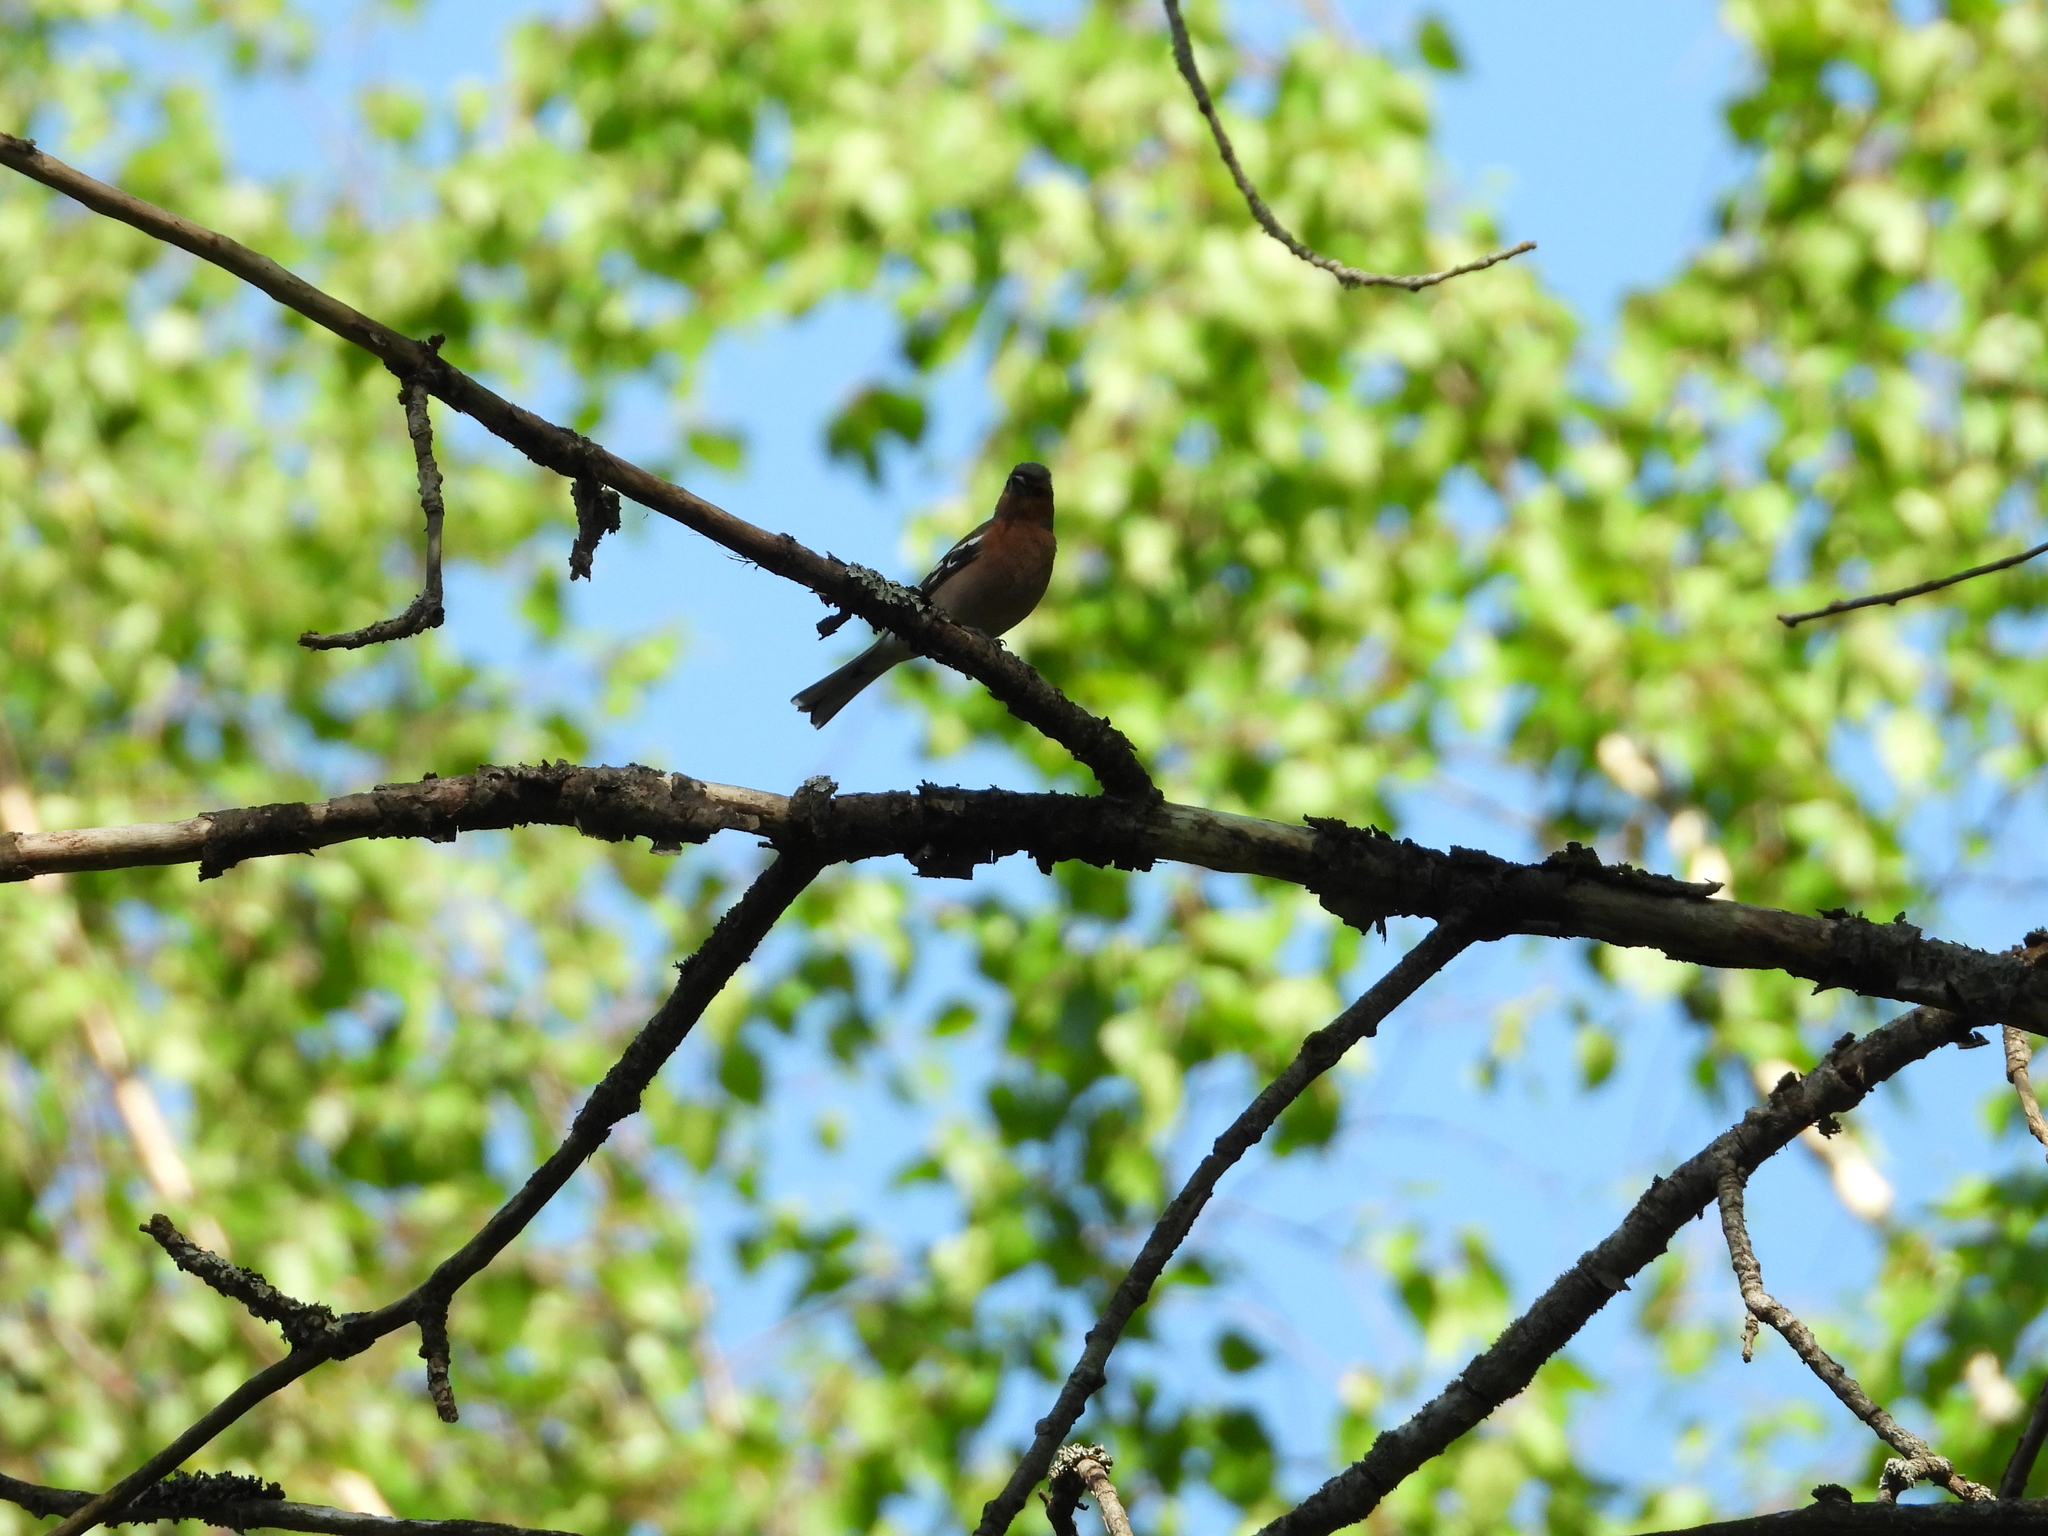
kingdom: Animalia
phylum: Chordata
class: Aves
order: Passeriformes
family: Fringillidae
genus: Fringilla
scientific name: Fringilla coelebs
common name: Common chaffinch
